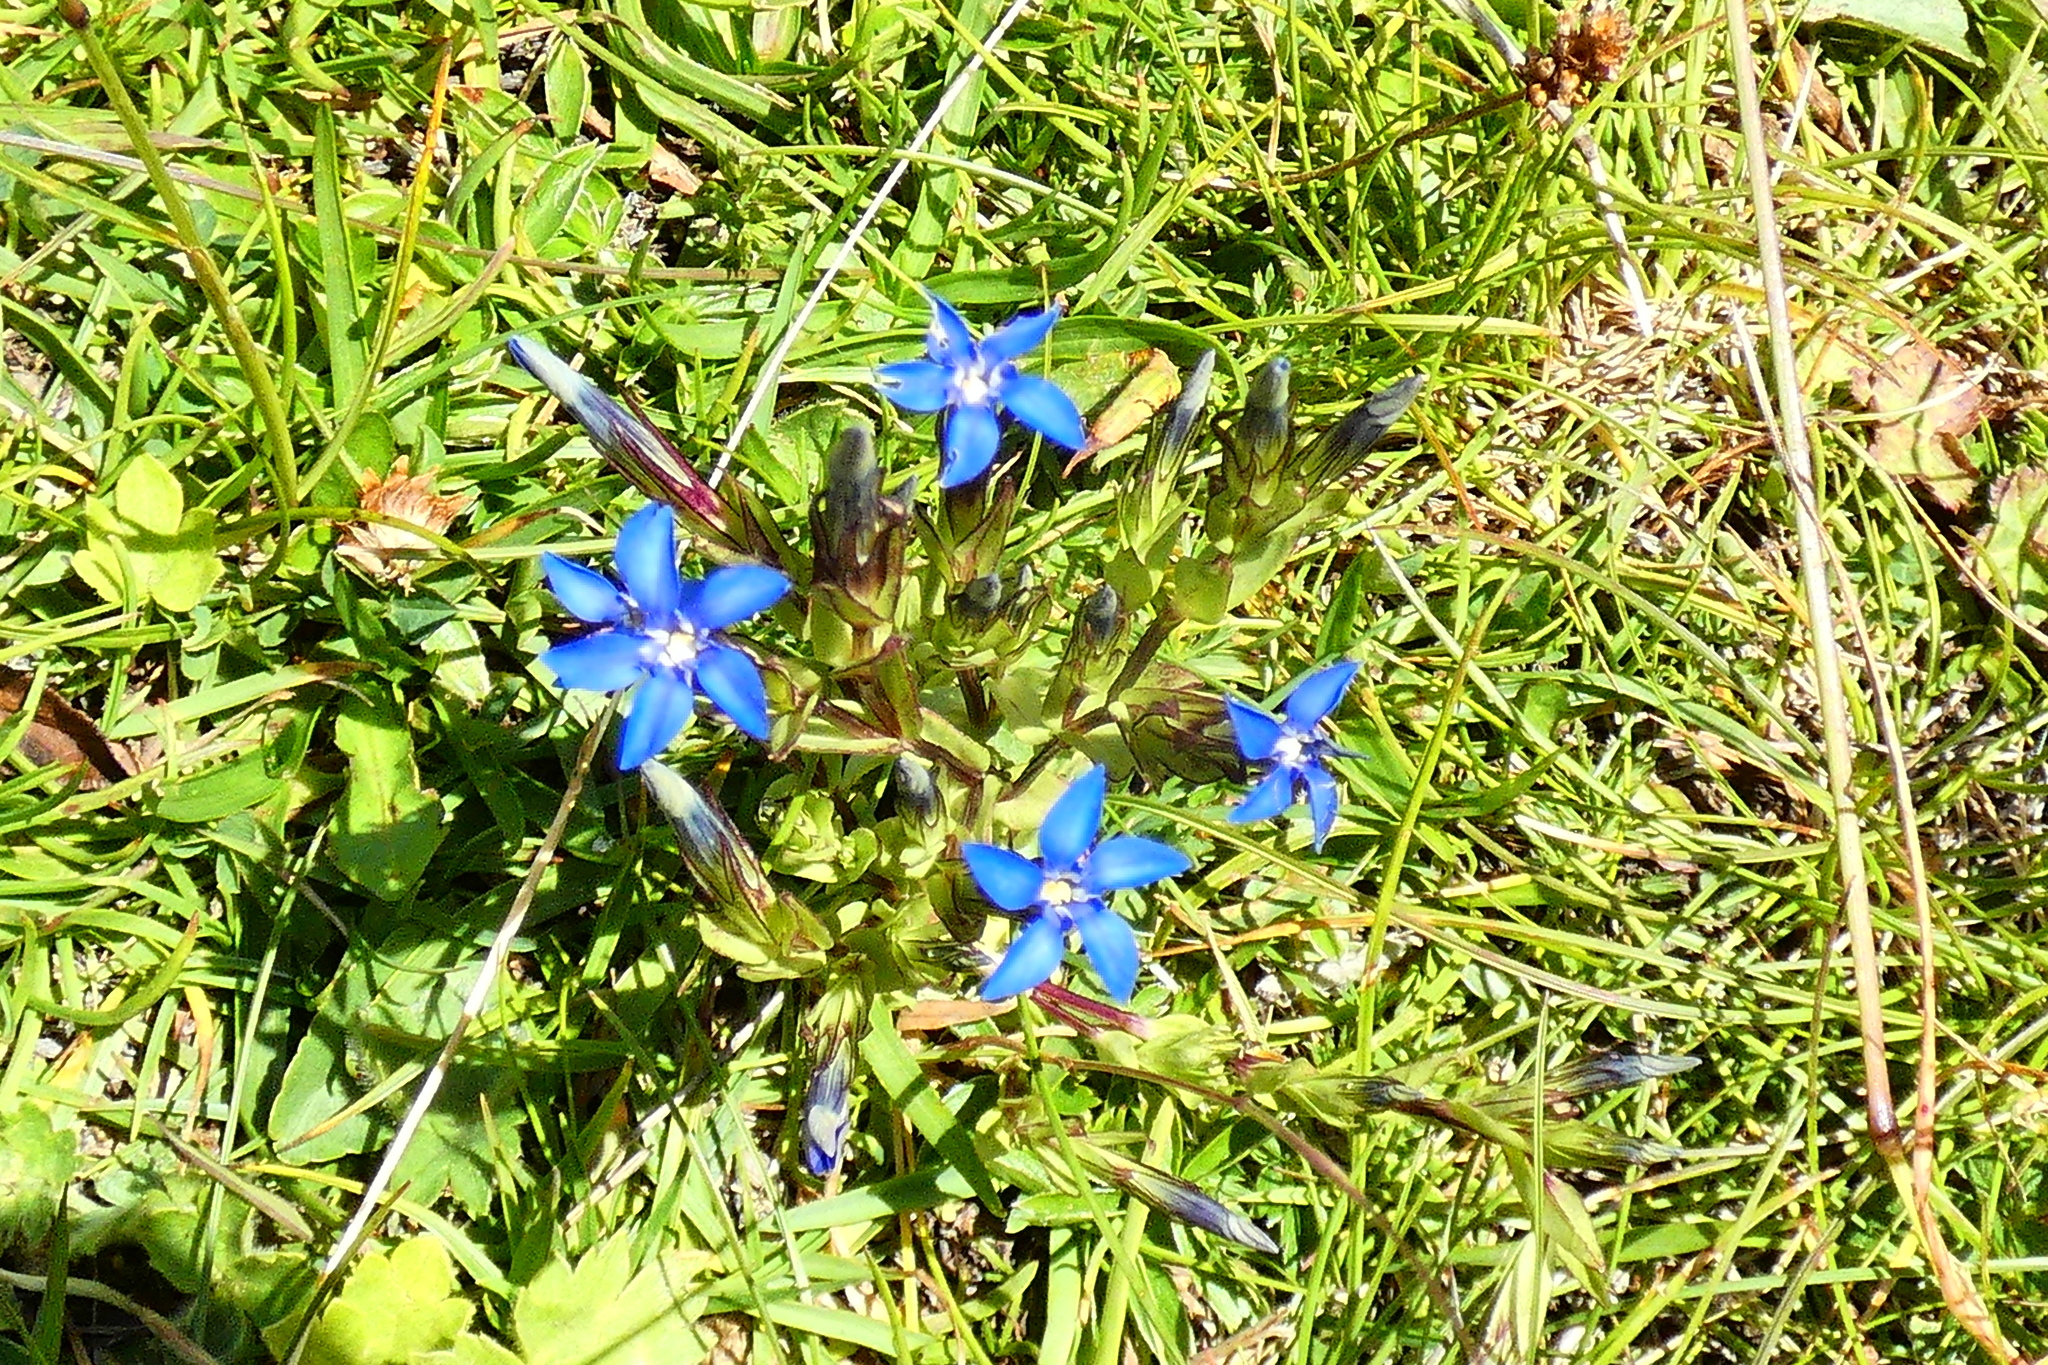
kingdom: Plantae
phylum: Tracheophyta
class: Magnoliopsida
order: Gentianales
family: Gentianaceae
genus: Gentiana
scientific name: Gentiana nivalis
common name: Alpine gentian
